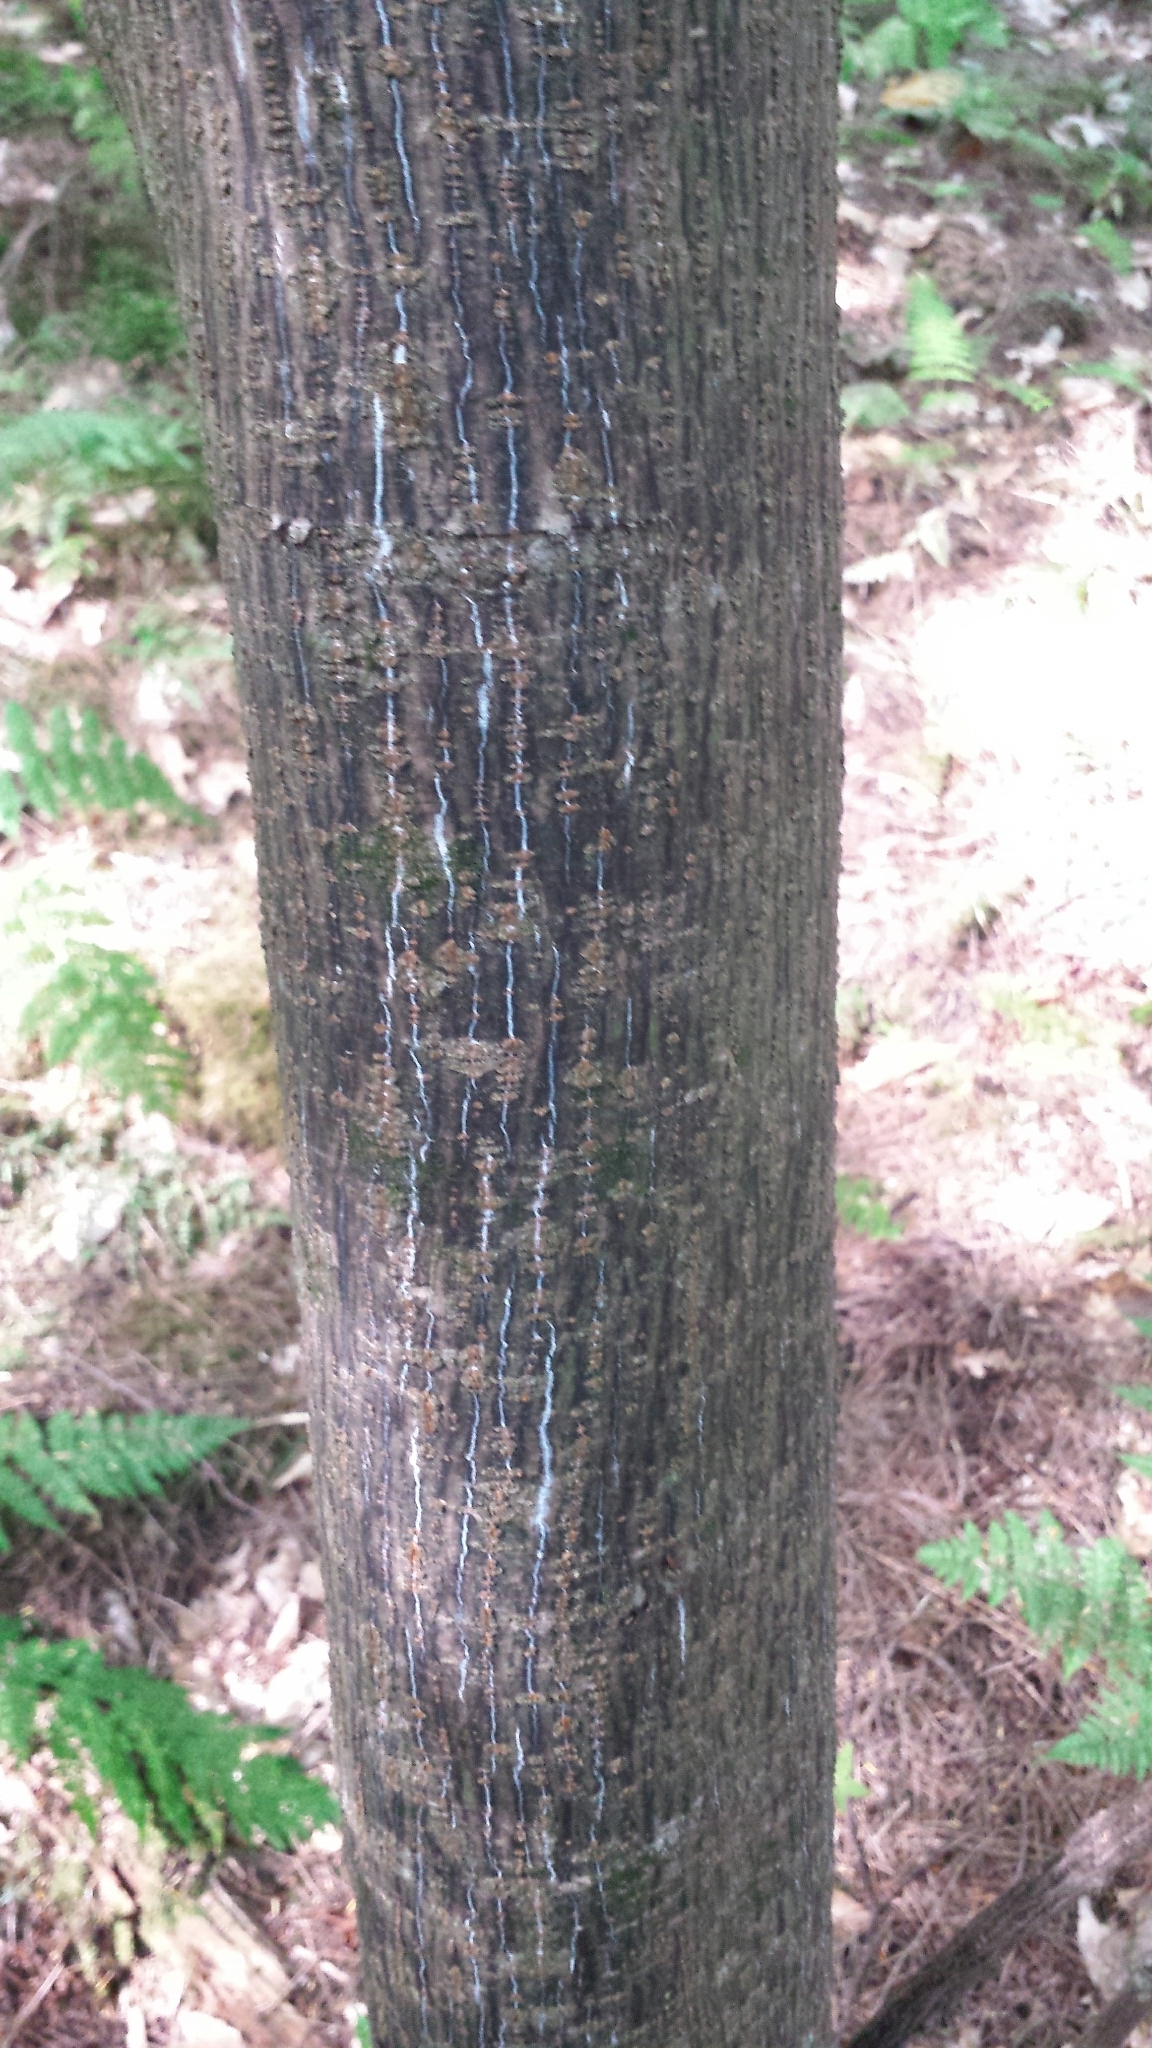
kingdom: Plantae
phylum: Tracheophyta
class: Magnoliopsida
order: Sapindales
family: Sapindaceae
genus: Acer
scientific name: Acer pensylvanicum
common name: Moosewood
